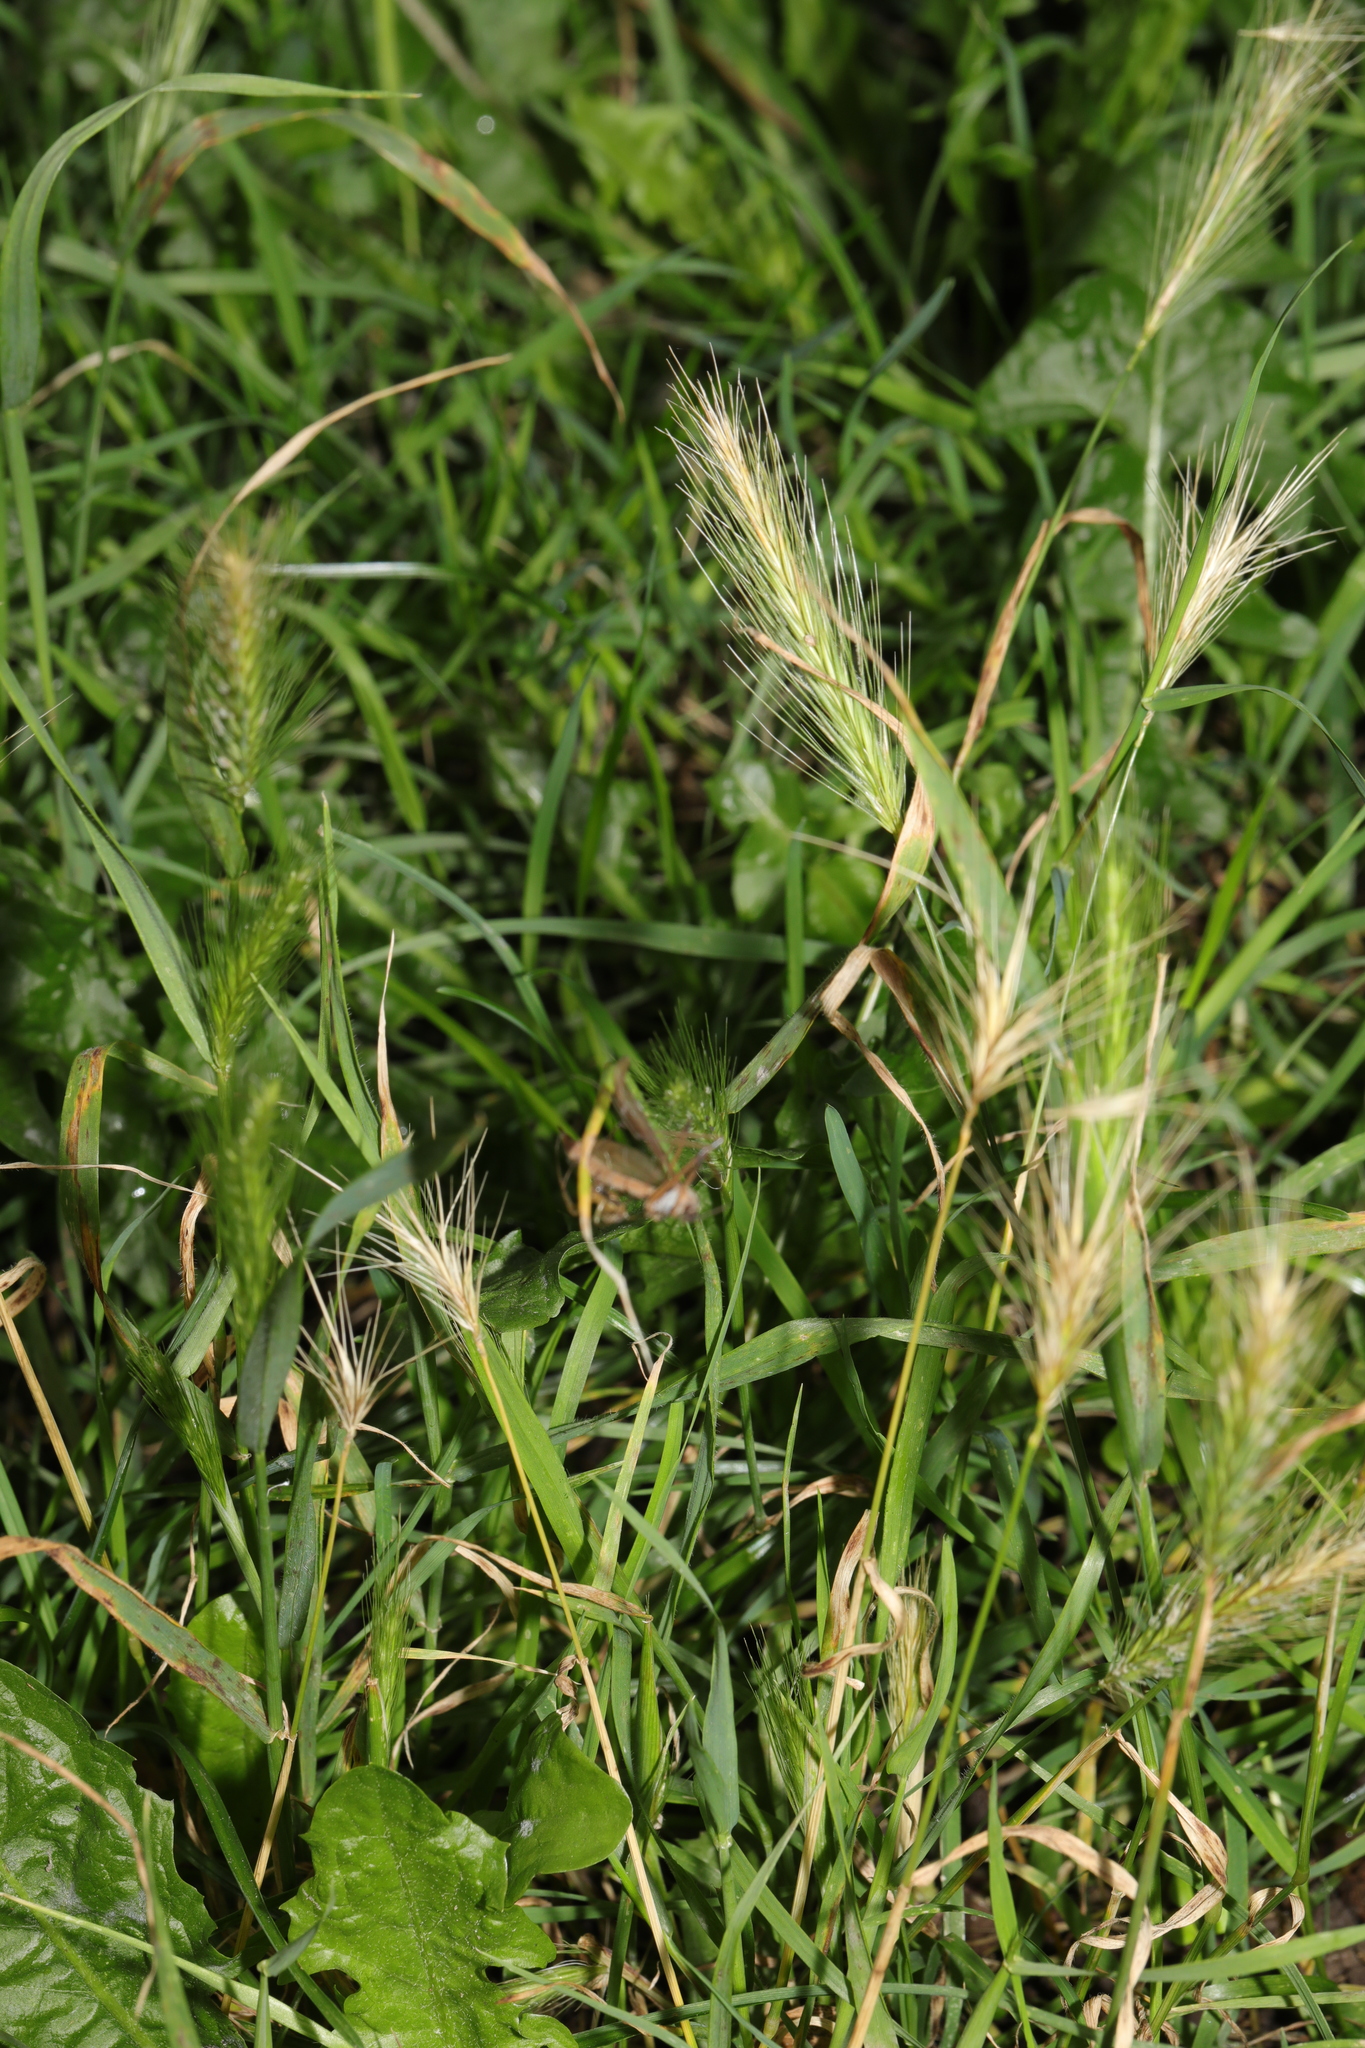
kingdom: Plantae
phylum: Tracheophyta
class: Liliopsida
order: Poales
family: Poaceae
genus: Hordeum
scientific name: Hordeum murinum
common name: Wall barley
